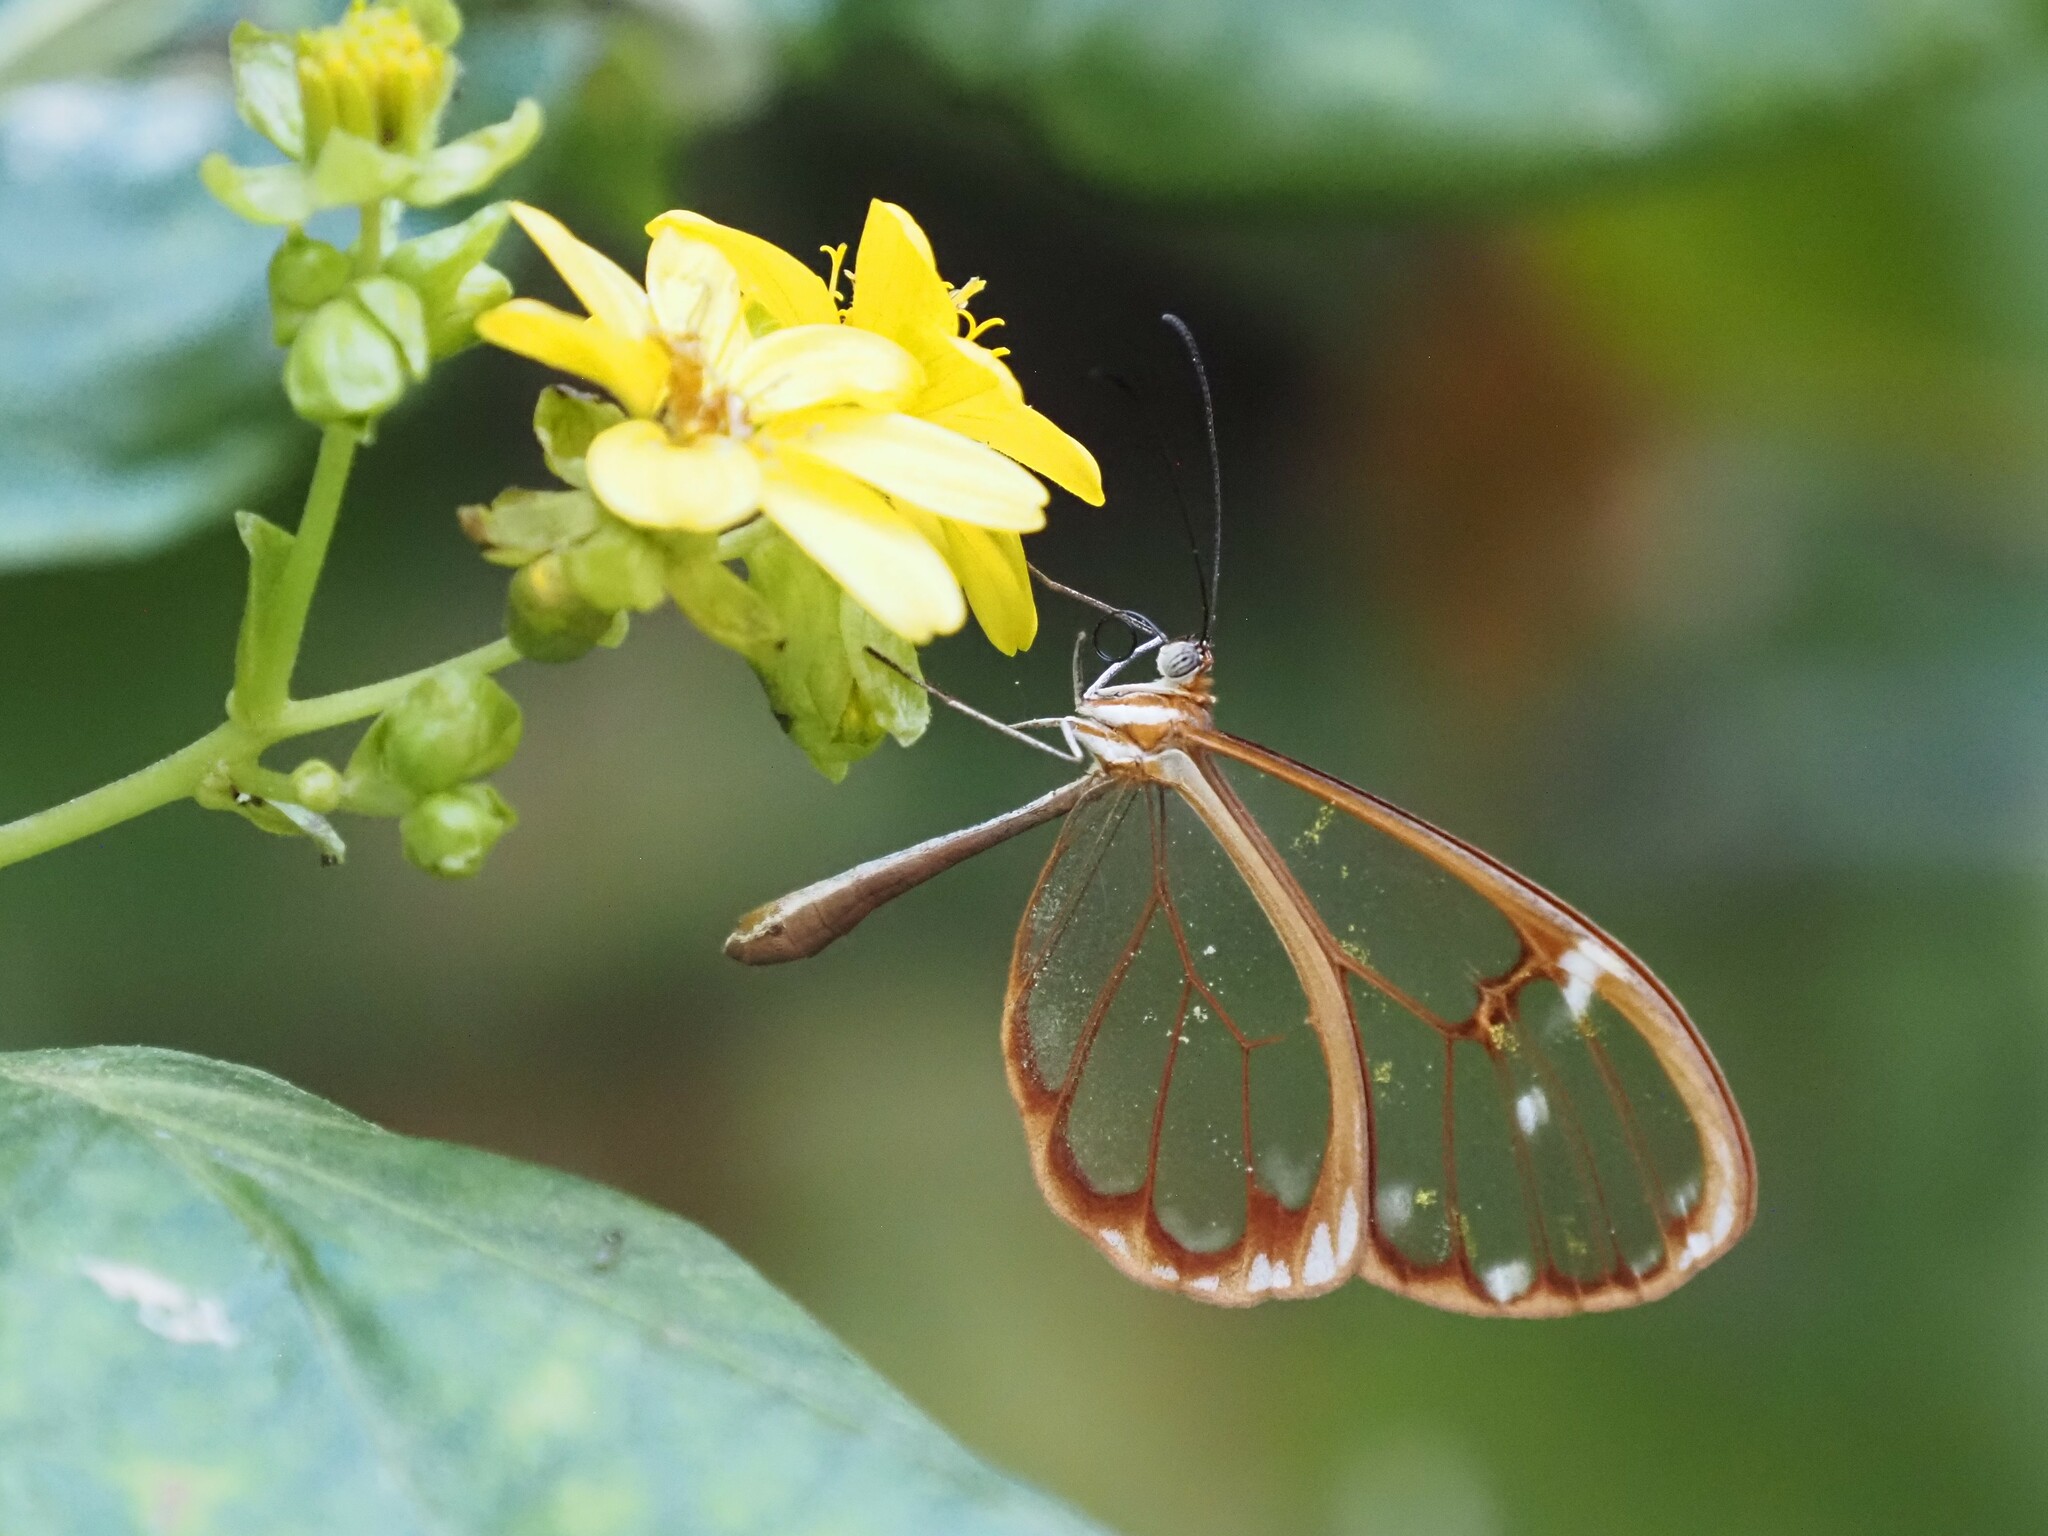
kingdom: Animalia
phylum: Arthropoda
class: Insecta
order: Lepidoptera
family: Nymphalidae
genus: Greta
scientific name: Greta annette
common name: White-spotted clearwing
